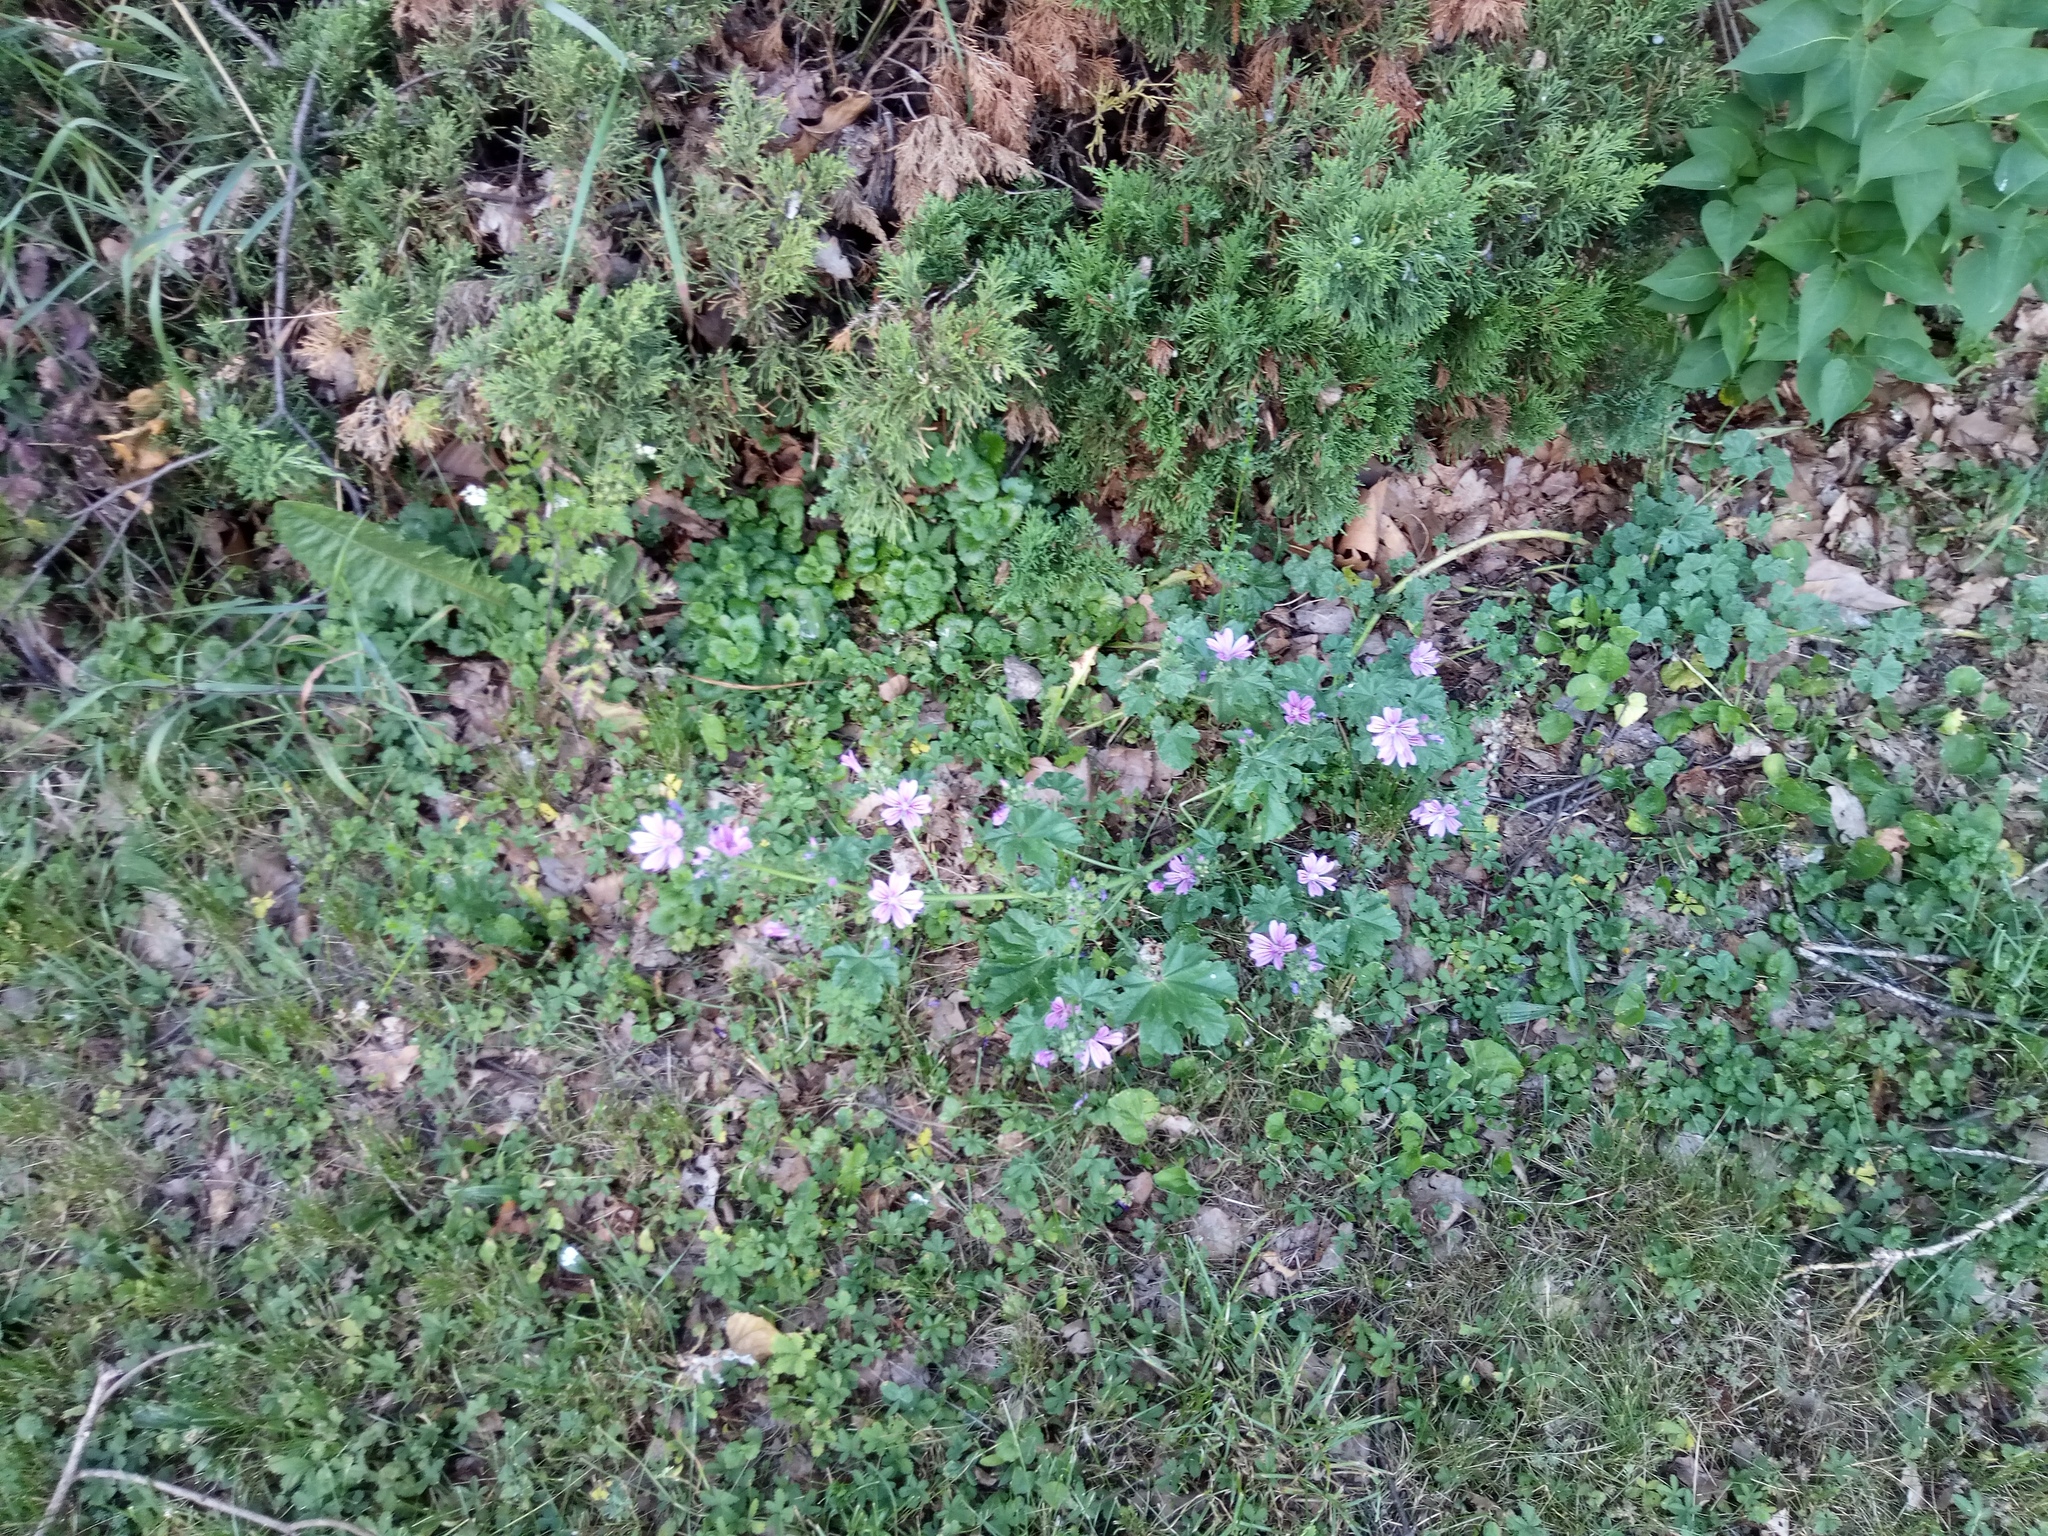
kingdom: Plantae
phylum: Tracheophyta
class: Magnoliopsida
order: Malvales
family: Malvaceae
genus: Malva
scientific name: Malva sylvestris
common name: Common mallow
